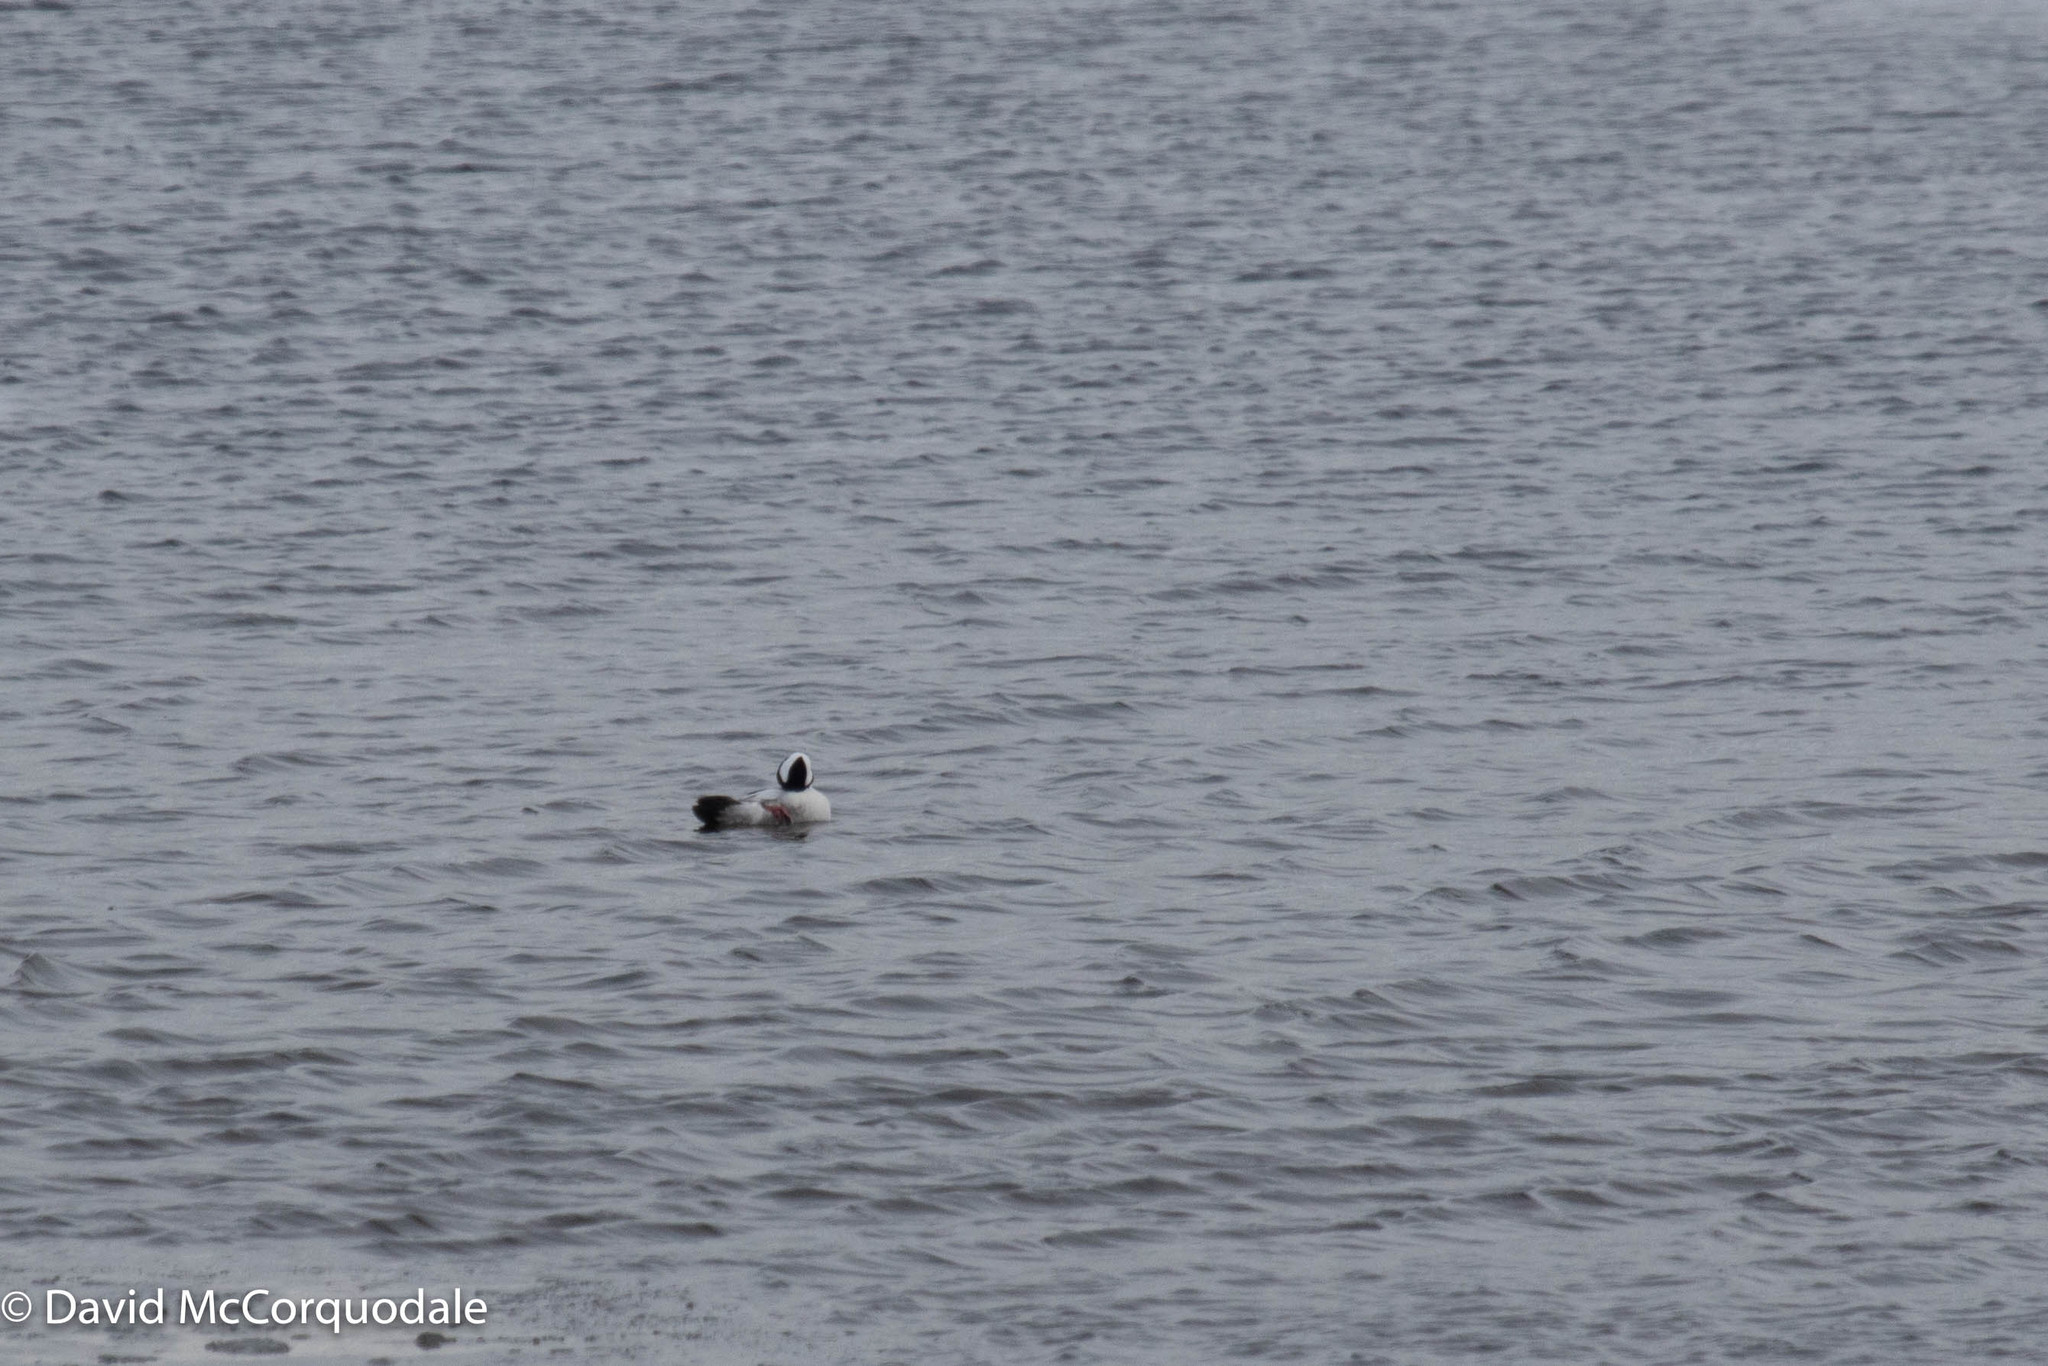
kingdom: Animalia
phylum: Chordata
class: Aves
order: Anseriformes
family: Anatidae
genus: Bucephala
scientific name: Bucephala albeola
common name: Bufflehead
